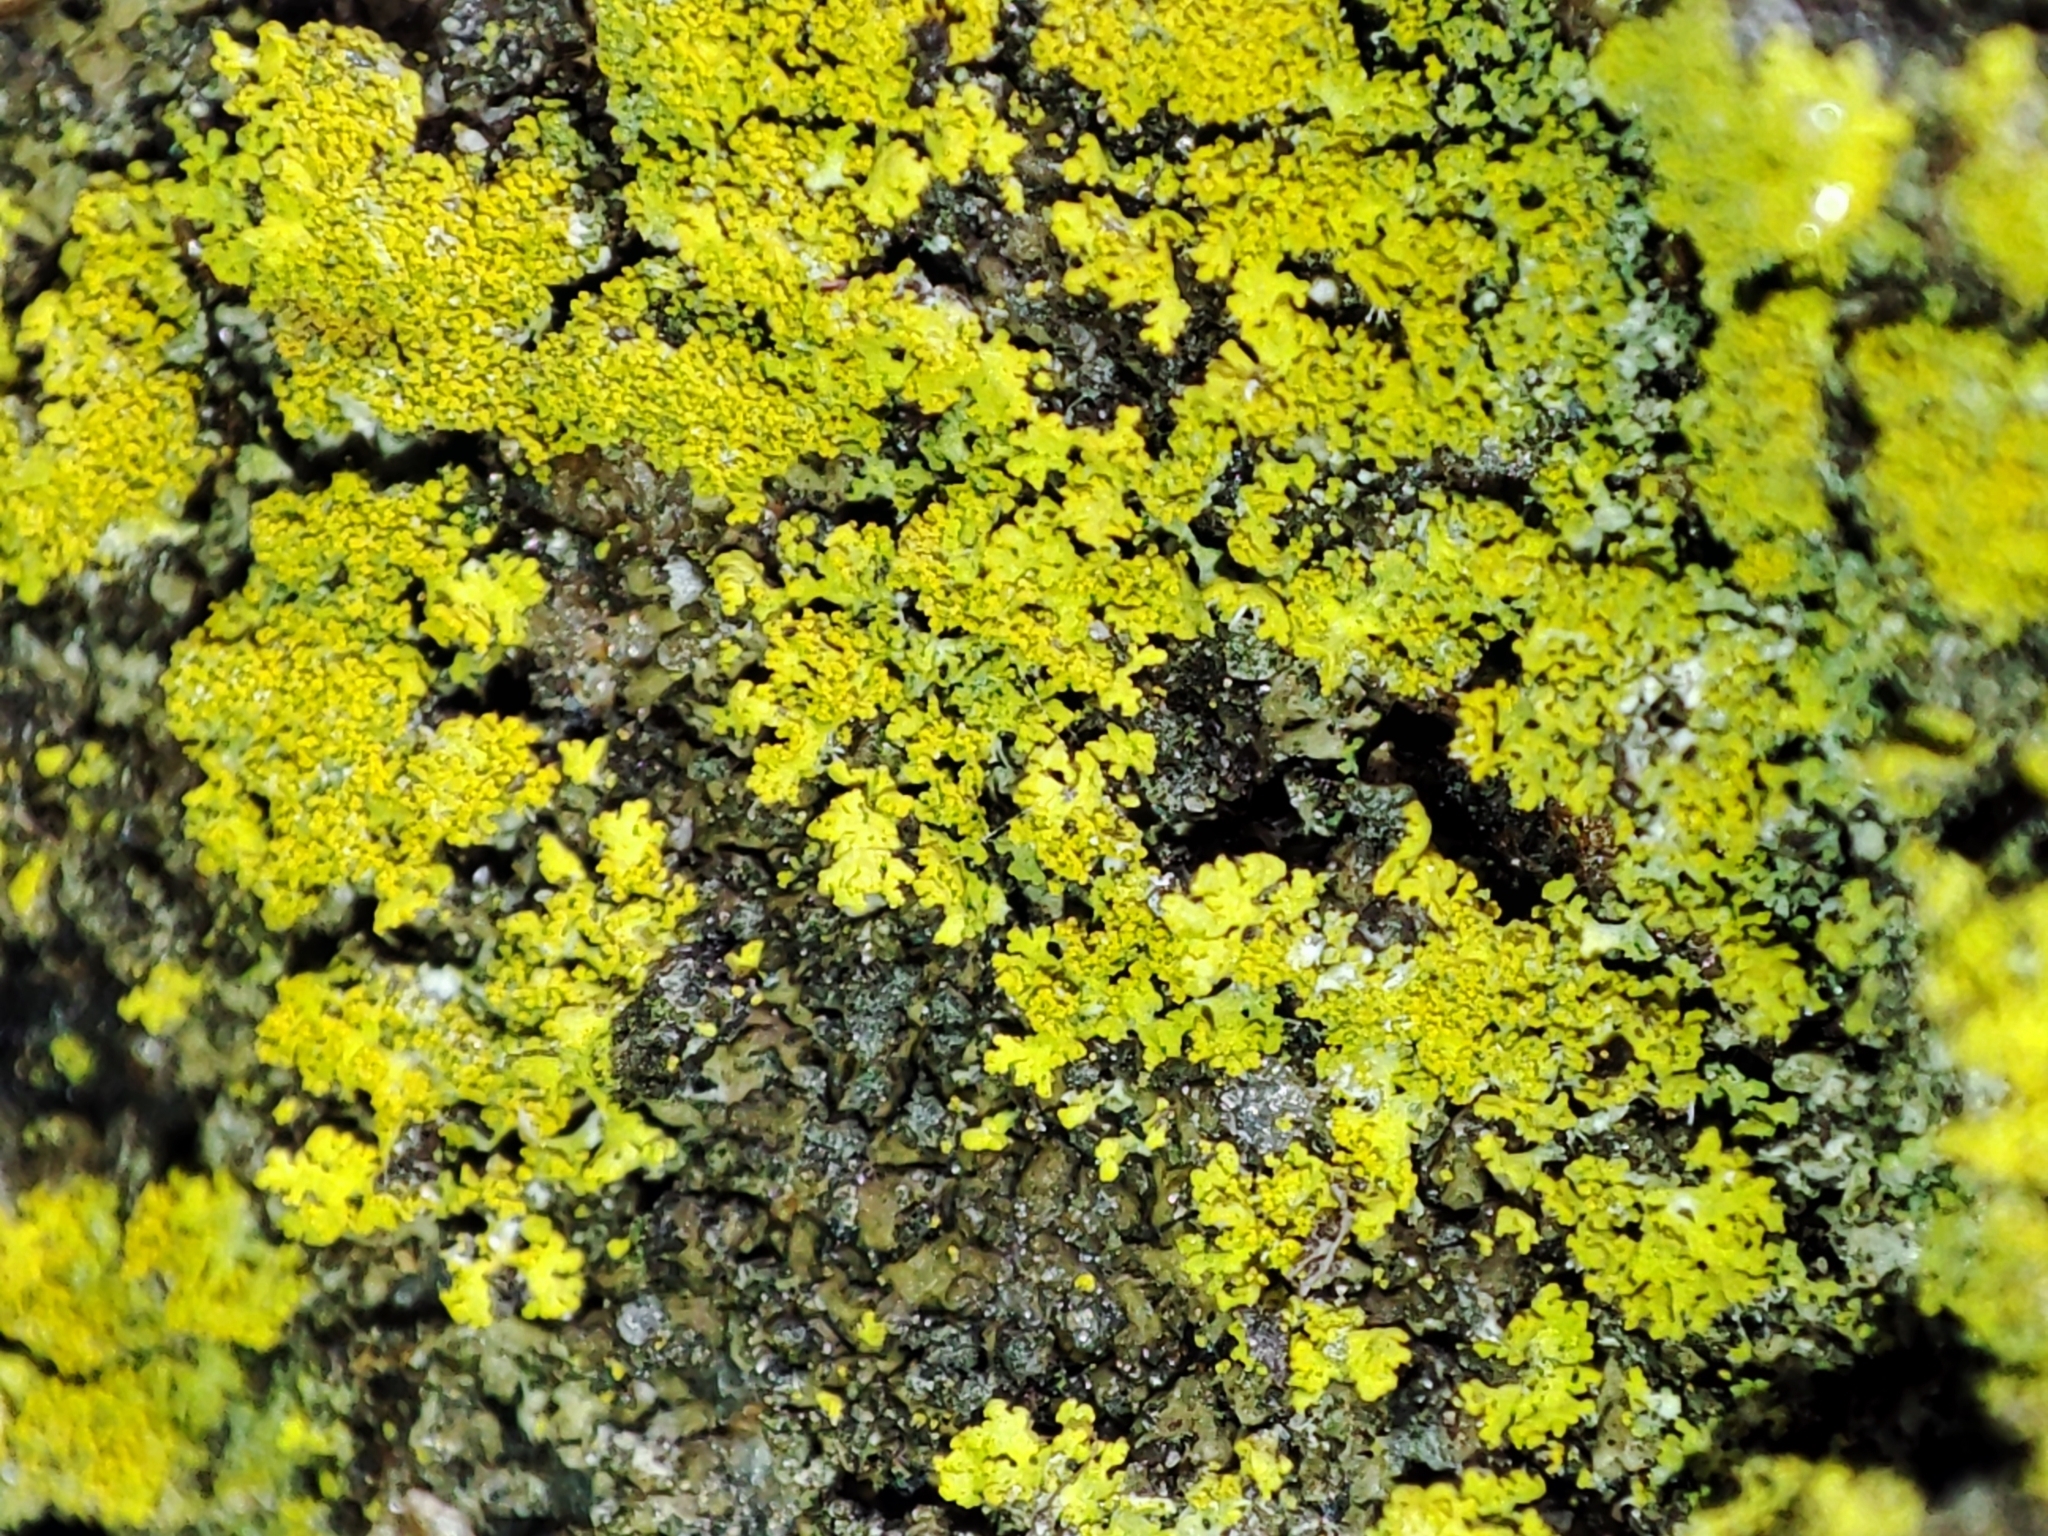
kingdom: Fungi
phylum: Ascomycota
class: Candelariomycetes
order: Candelariales
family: Candelariaceae
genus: Candelaria
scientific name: Candelaria concolor
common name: Candleflame lichen
